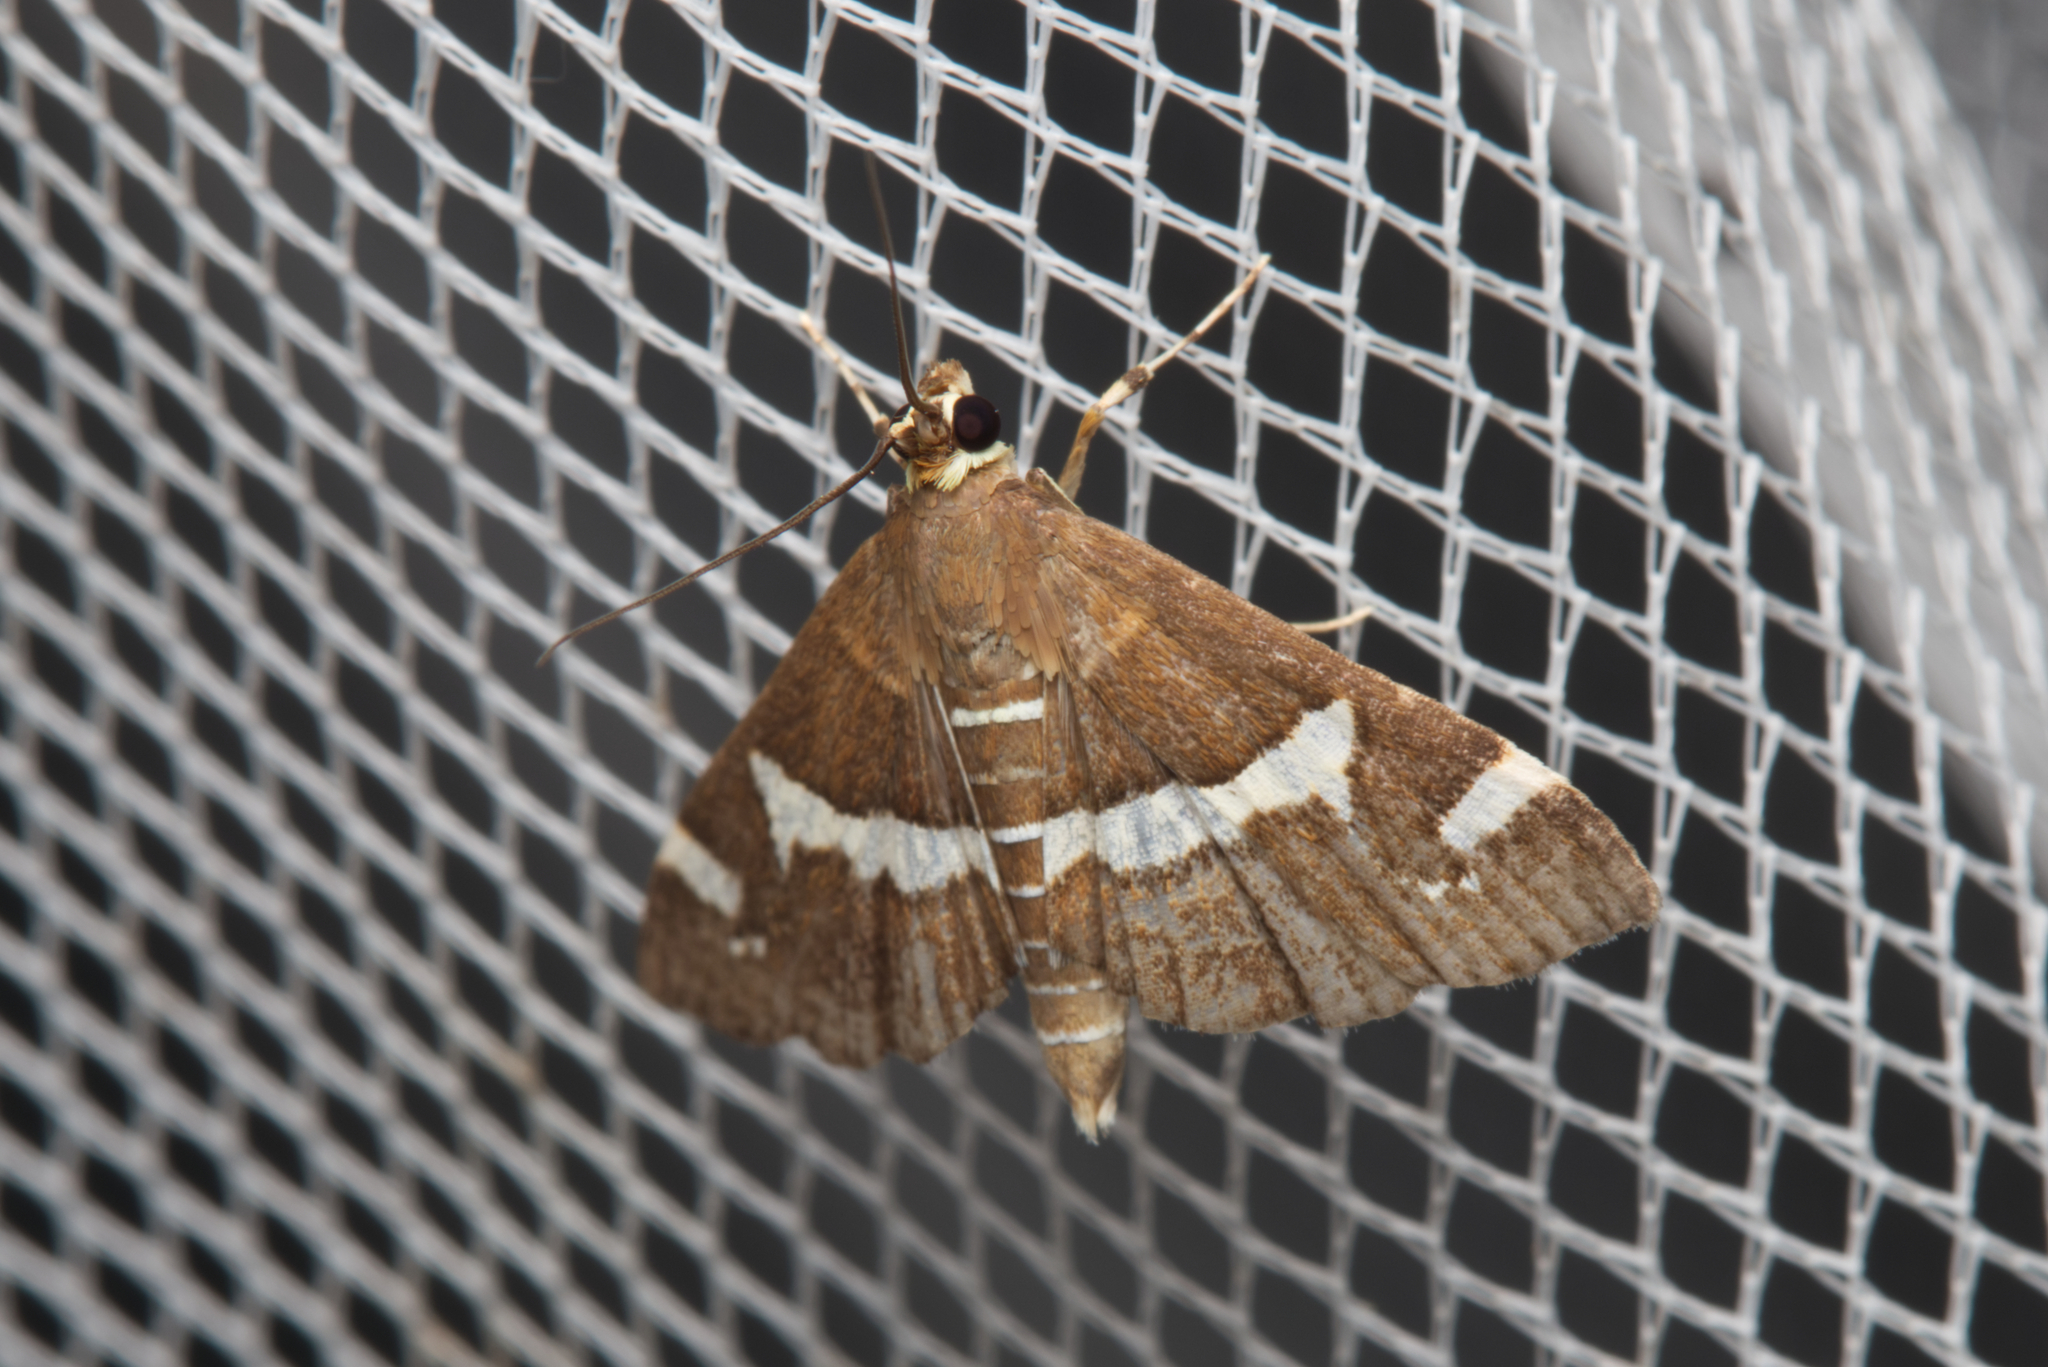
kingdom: Animalia
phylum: Arthropoda
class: Insecta
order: Lepidoptera
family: Crambidae
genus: Spoladea
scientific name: Spoladea recurvalis
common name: Beet webworm moth
